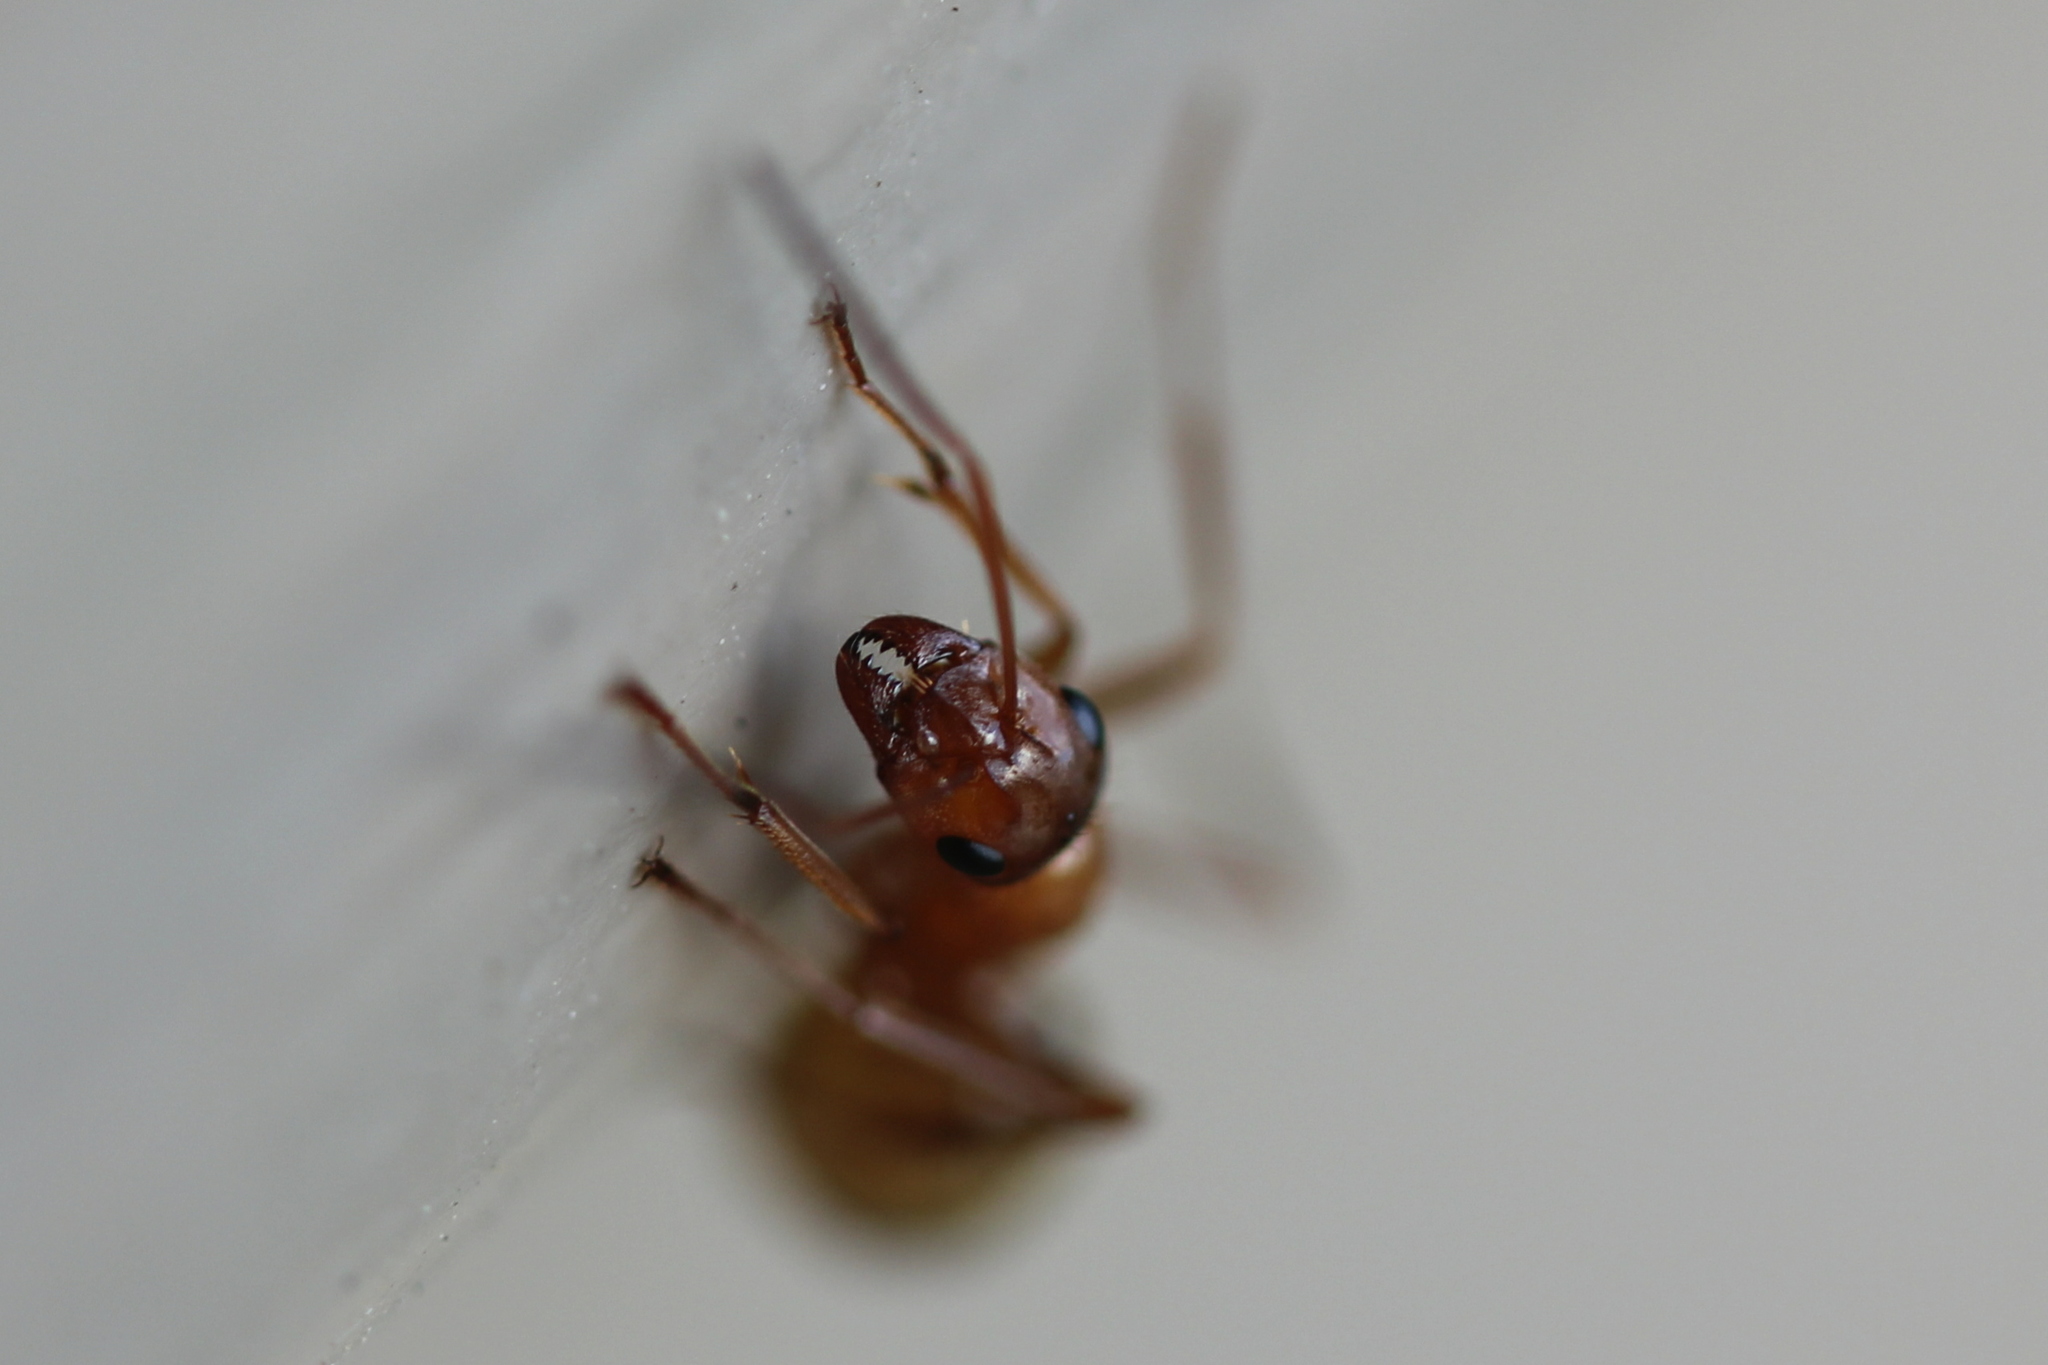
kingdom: Animalia
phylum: Arthropoda
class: Insecta
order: Hymenoptera
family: Formicidae
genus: Formica
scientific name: Formica incerta
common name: Uncertain field ant
